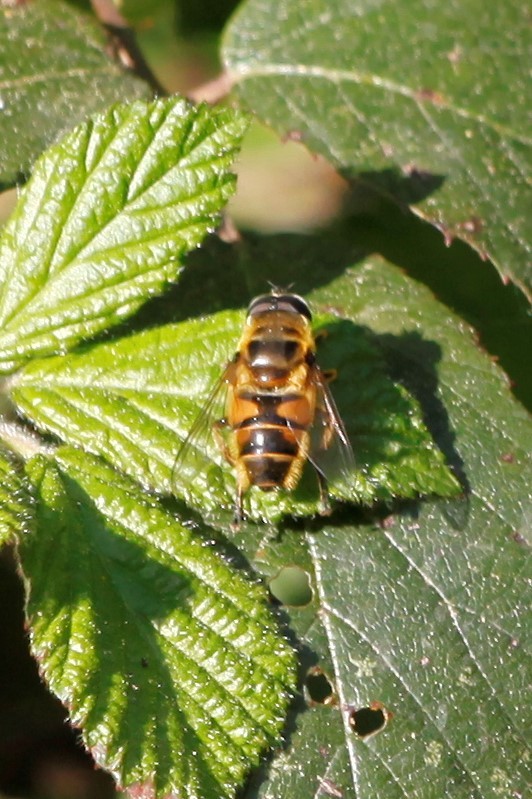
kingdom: Animalia
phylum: Arthropoda
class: Insecta
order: Diptera
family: Syrphidae
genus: Myathropa
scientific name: Myathropa florea
